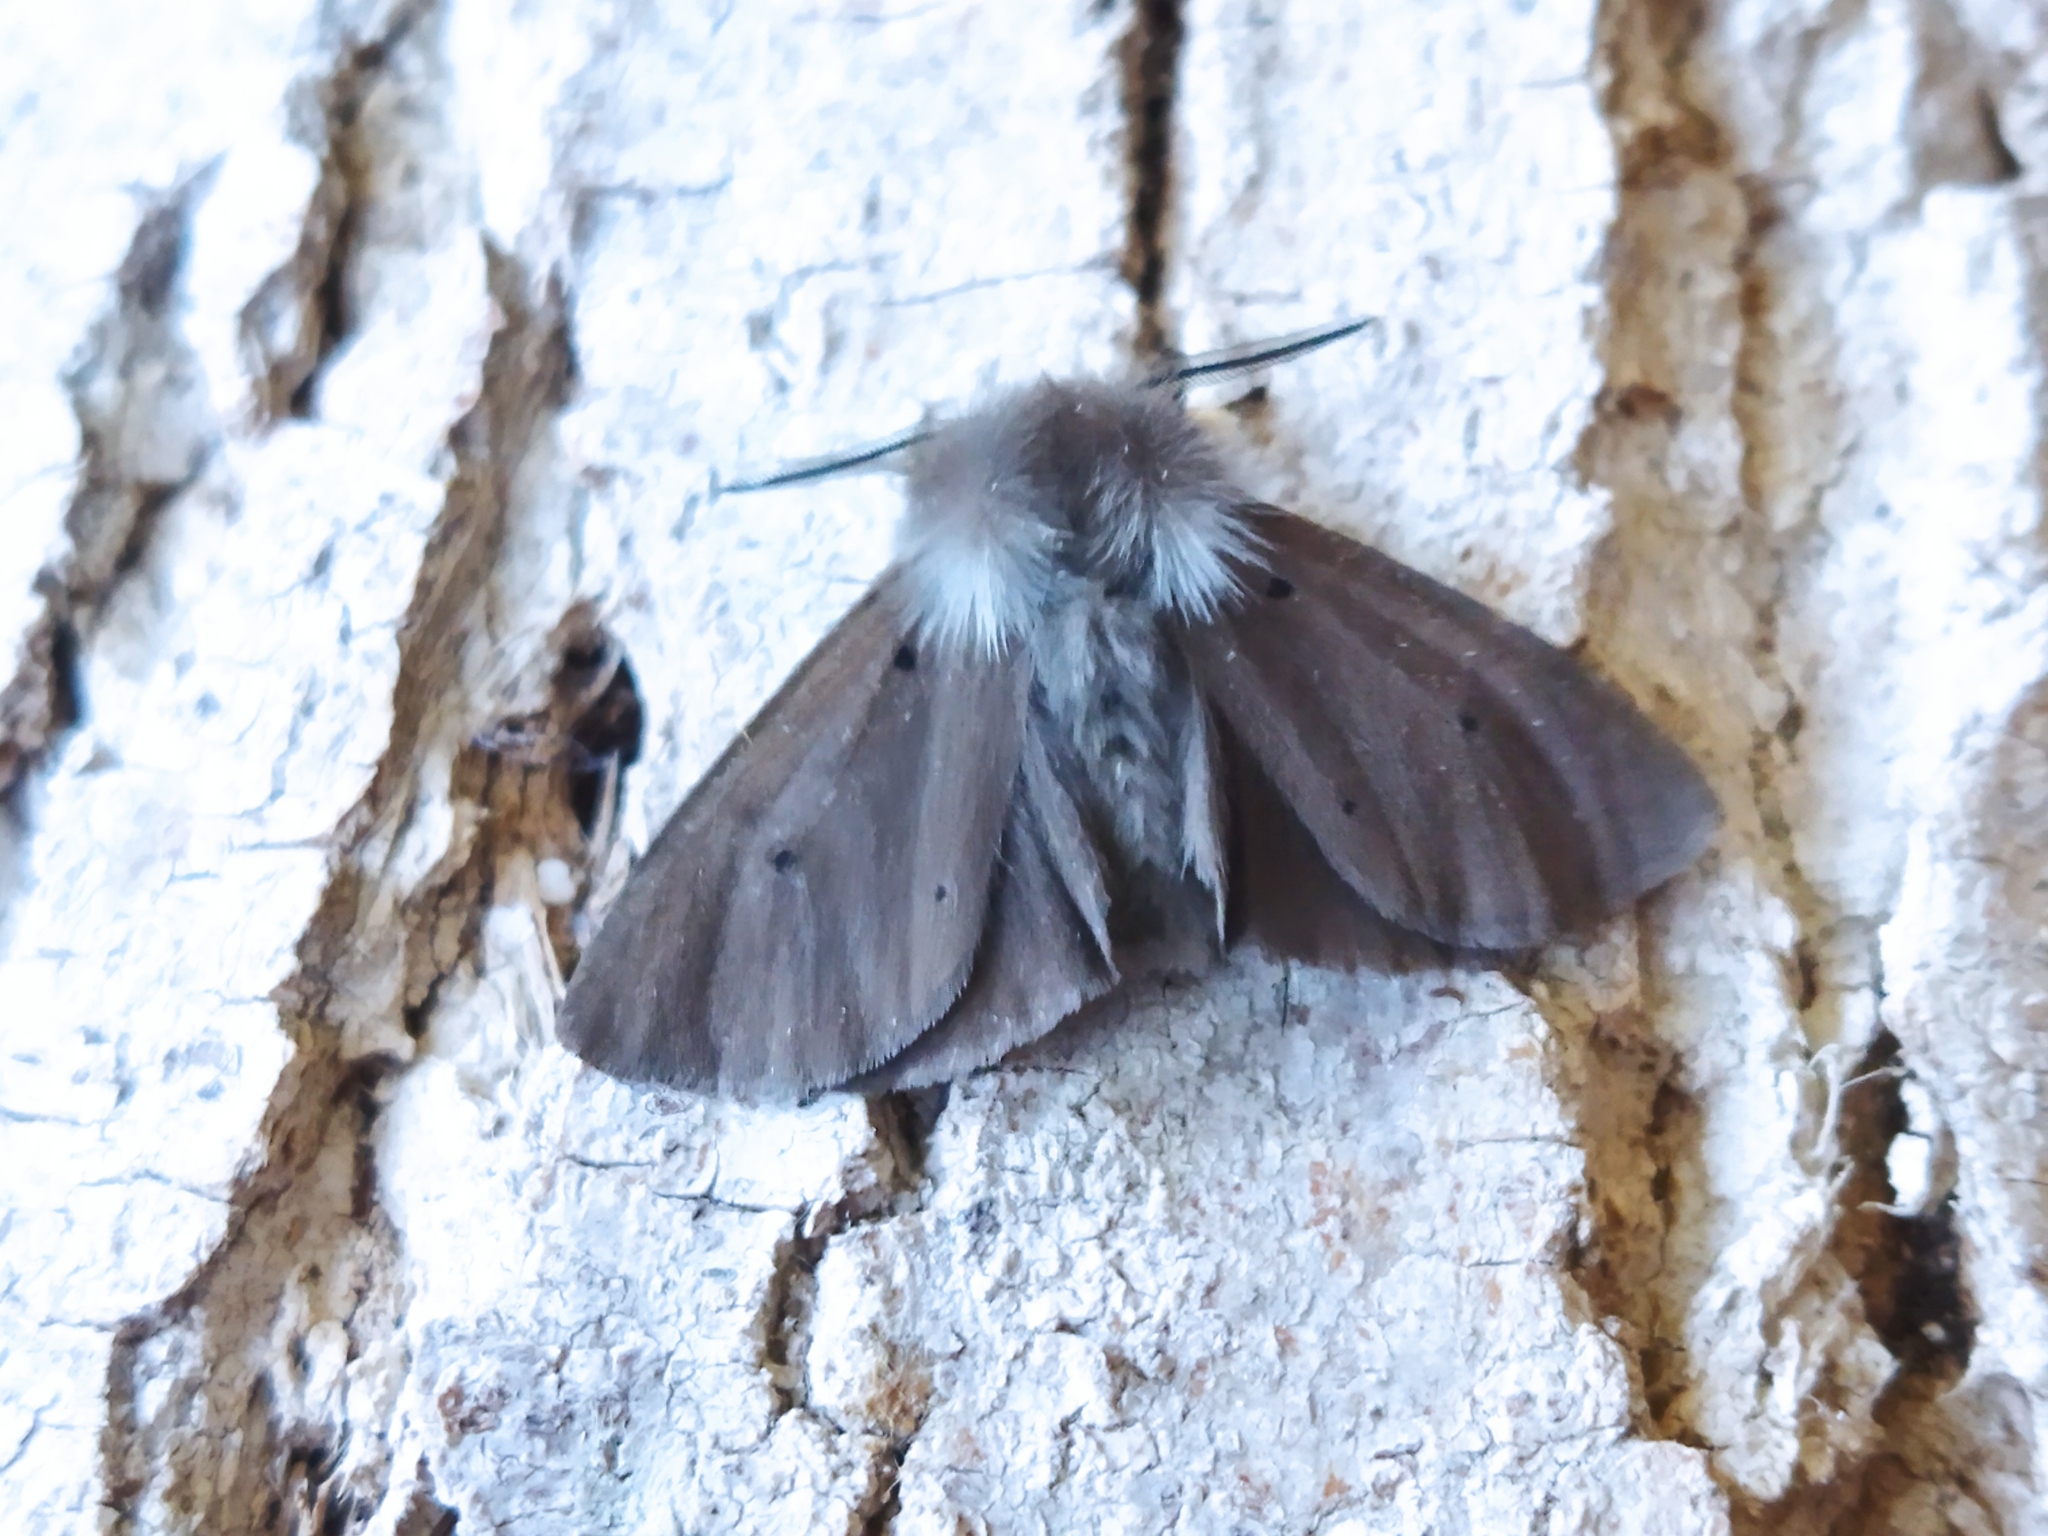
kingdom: Animalia
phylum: Arthropoda
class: Insecta
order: Lepidoptera
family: Erebidae
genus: Diaphora
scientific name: Diaphora mendica
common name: Muslin moth
